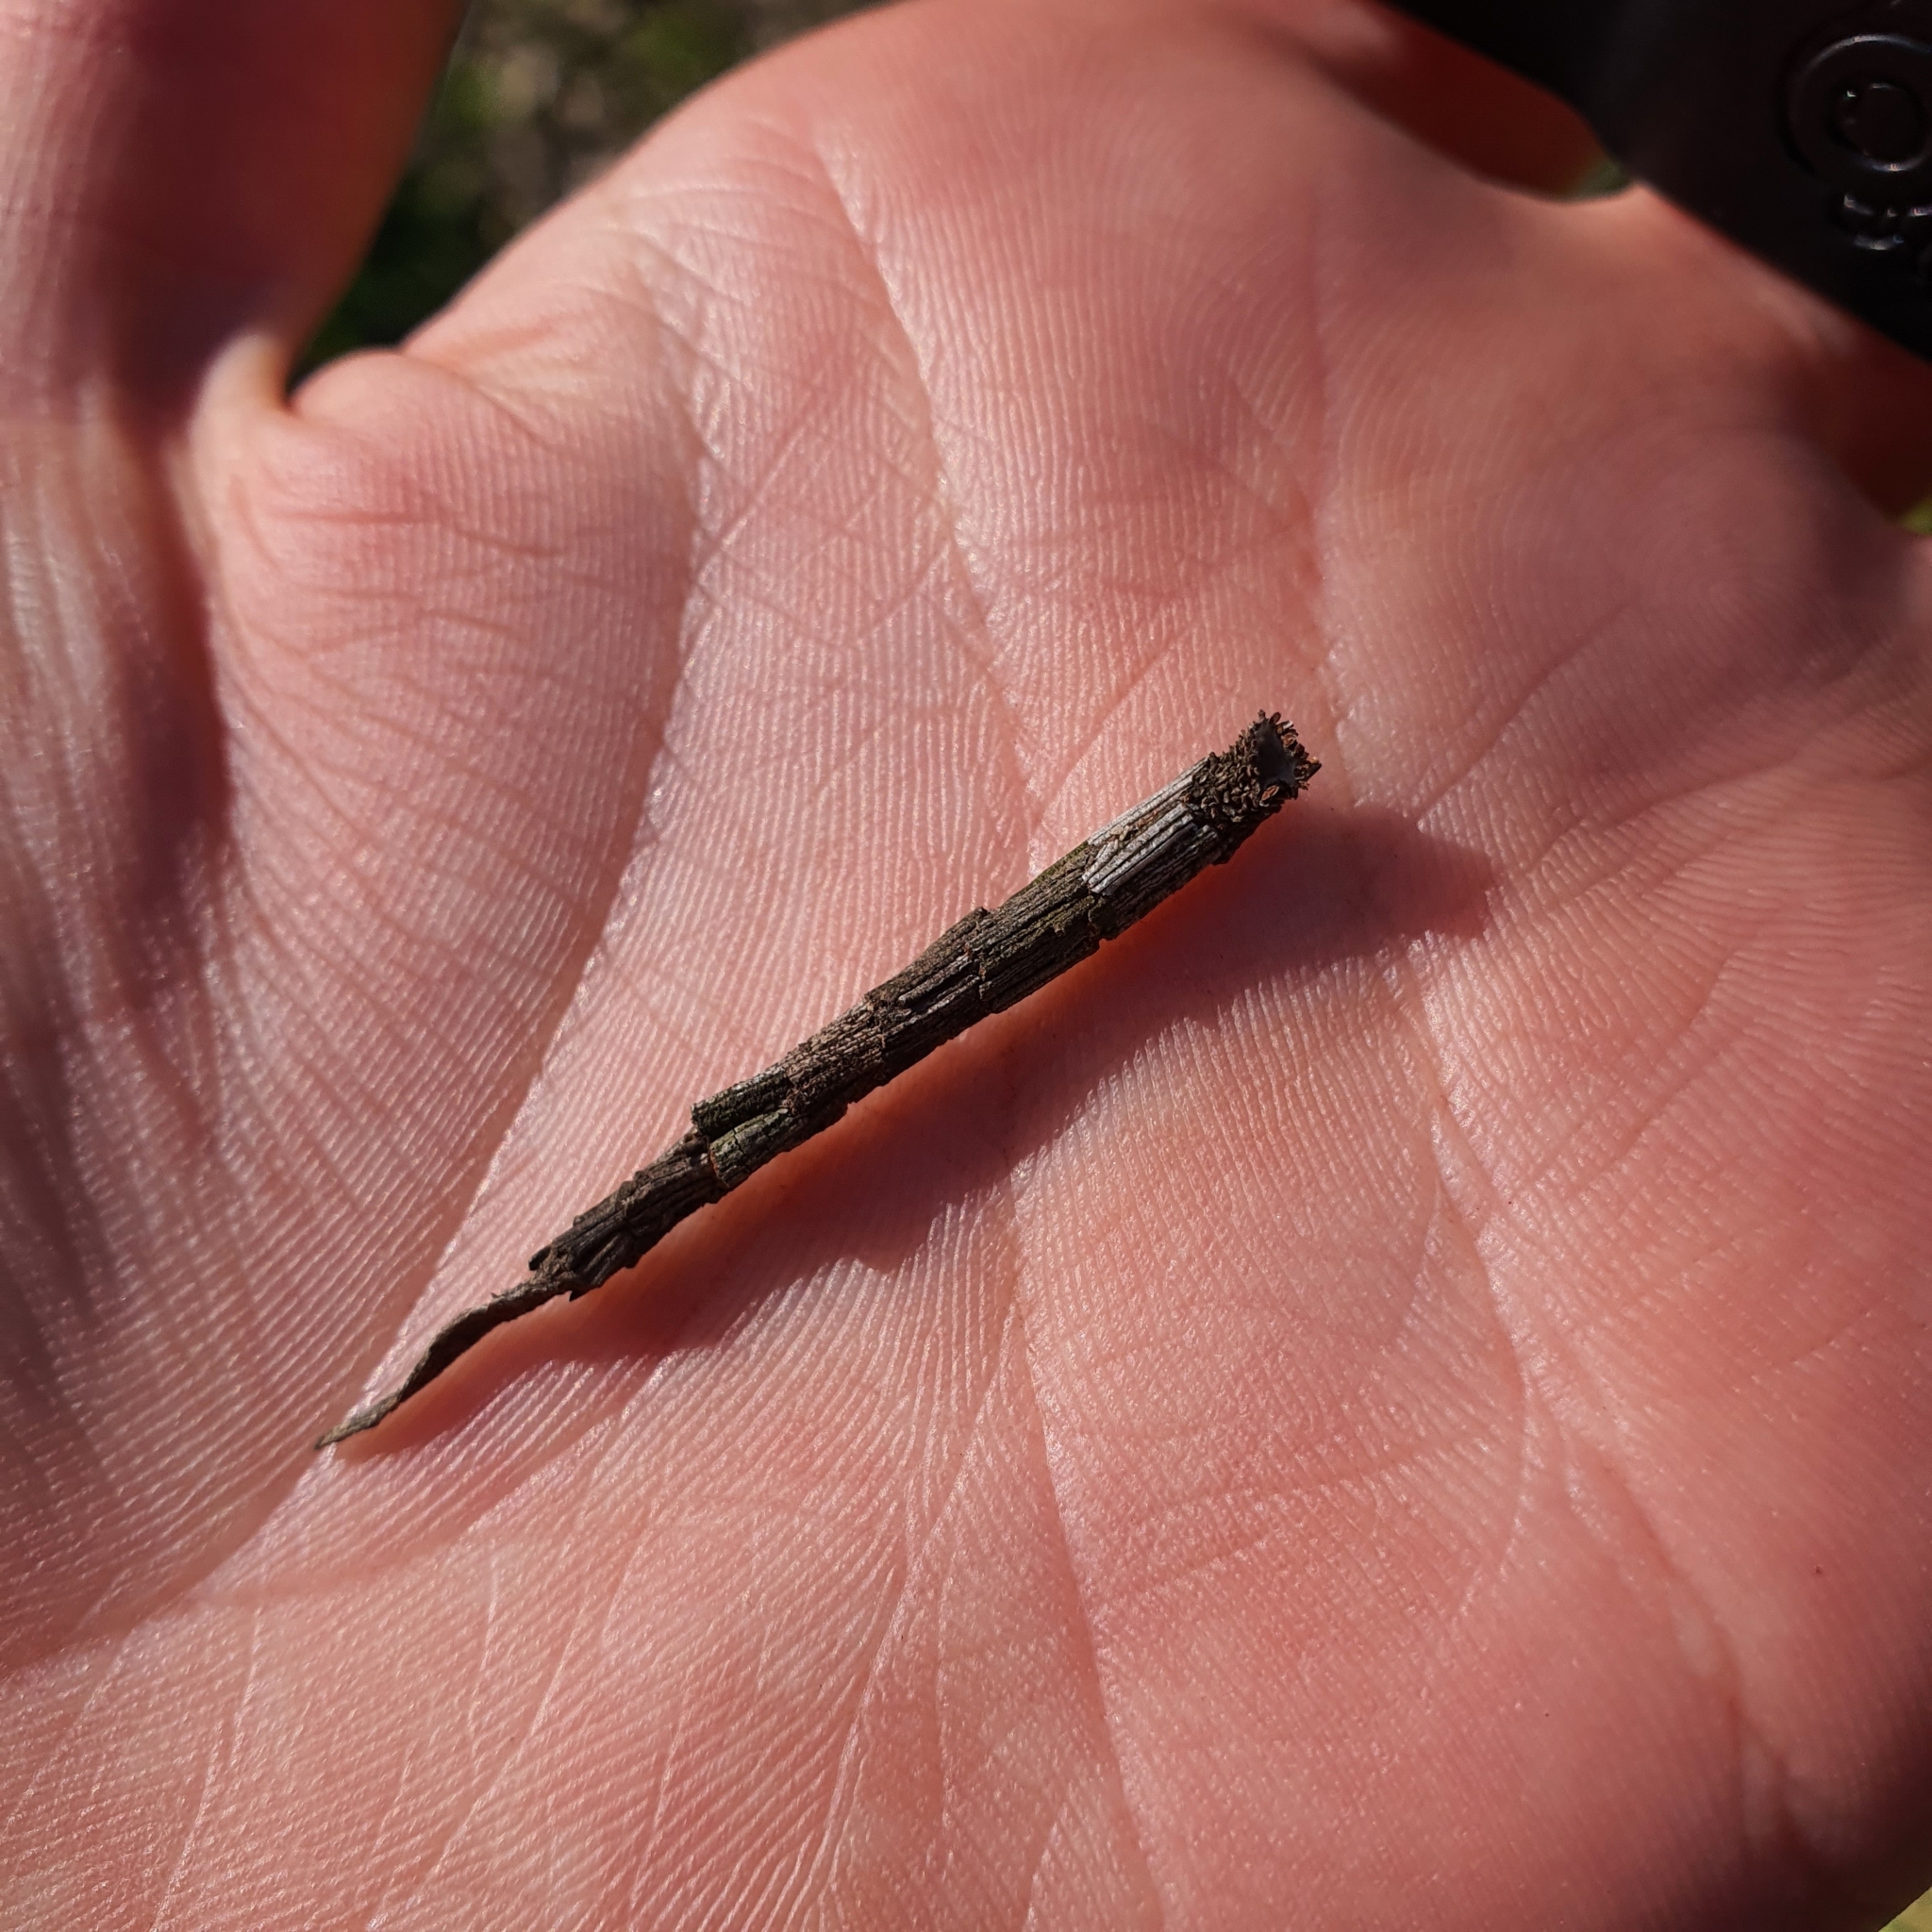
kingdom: Animalia
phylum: Arthropoda
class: Insecta
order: Lepidoptera
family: Psychidae
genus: Lepidoscia
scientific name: Lepidoscia arctiella
